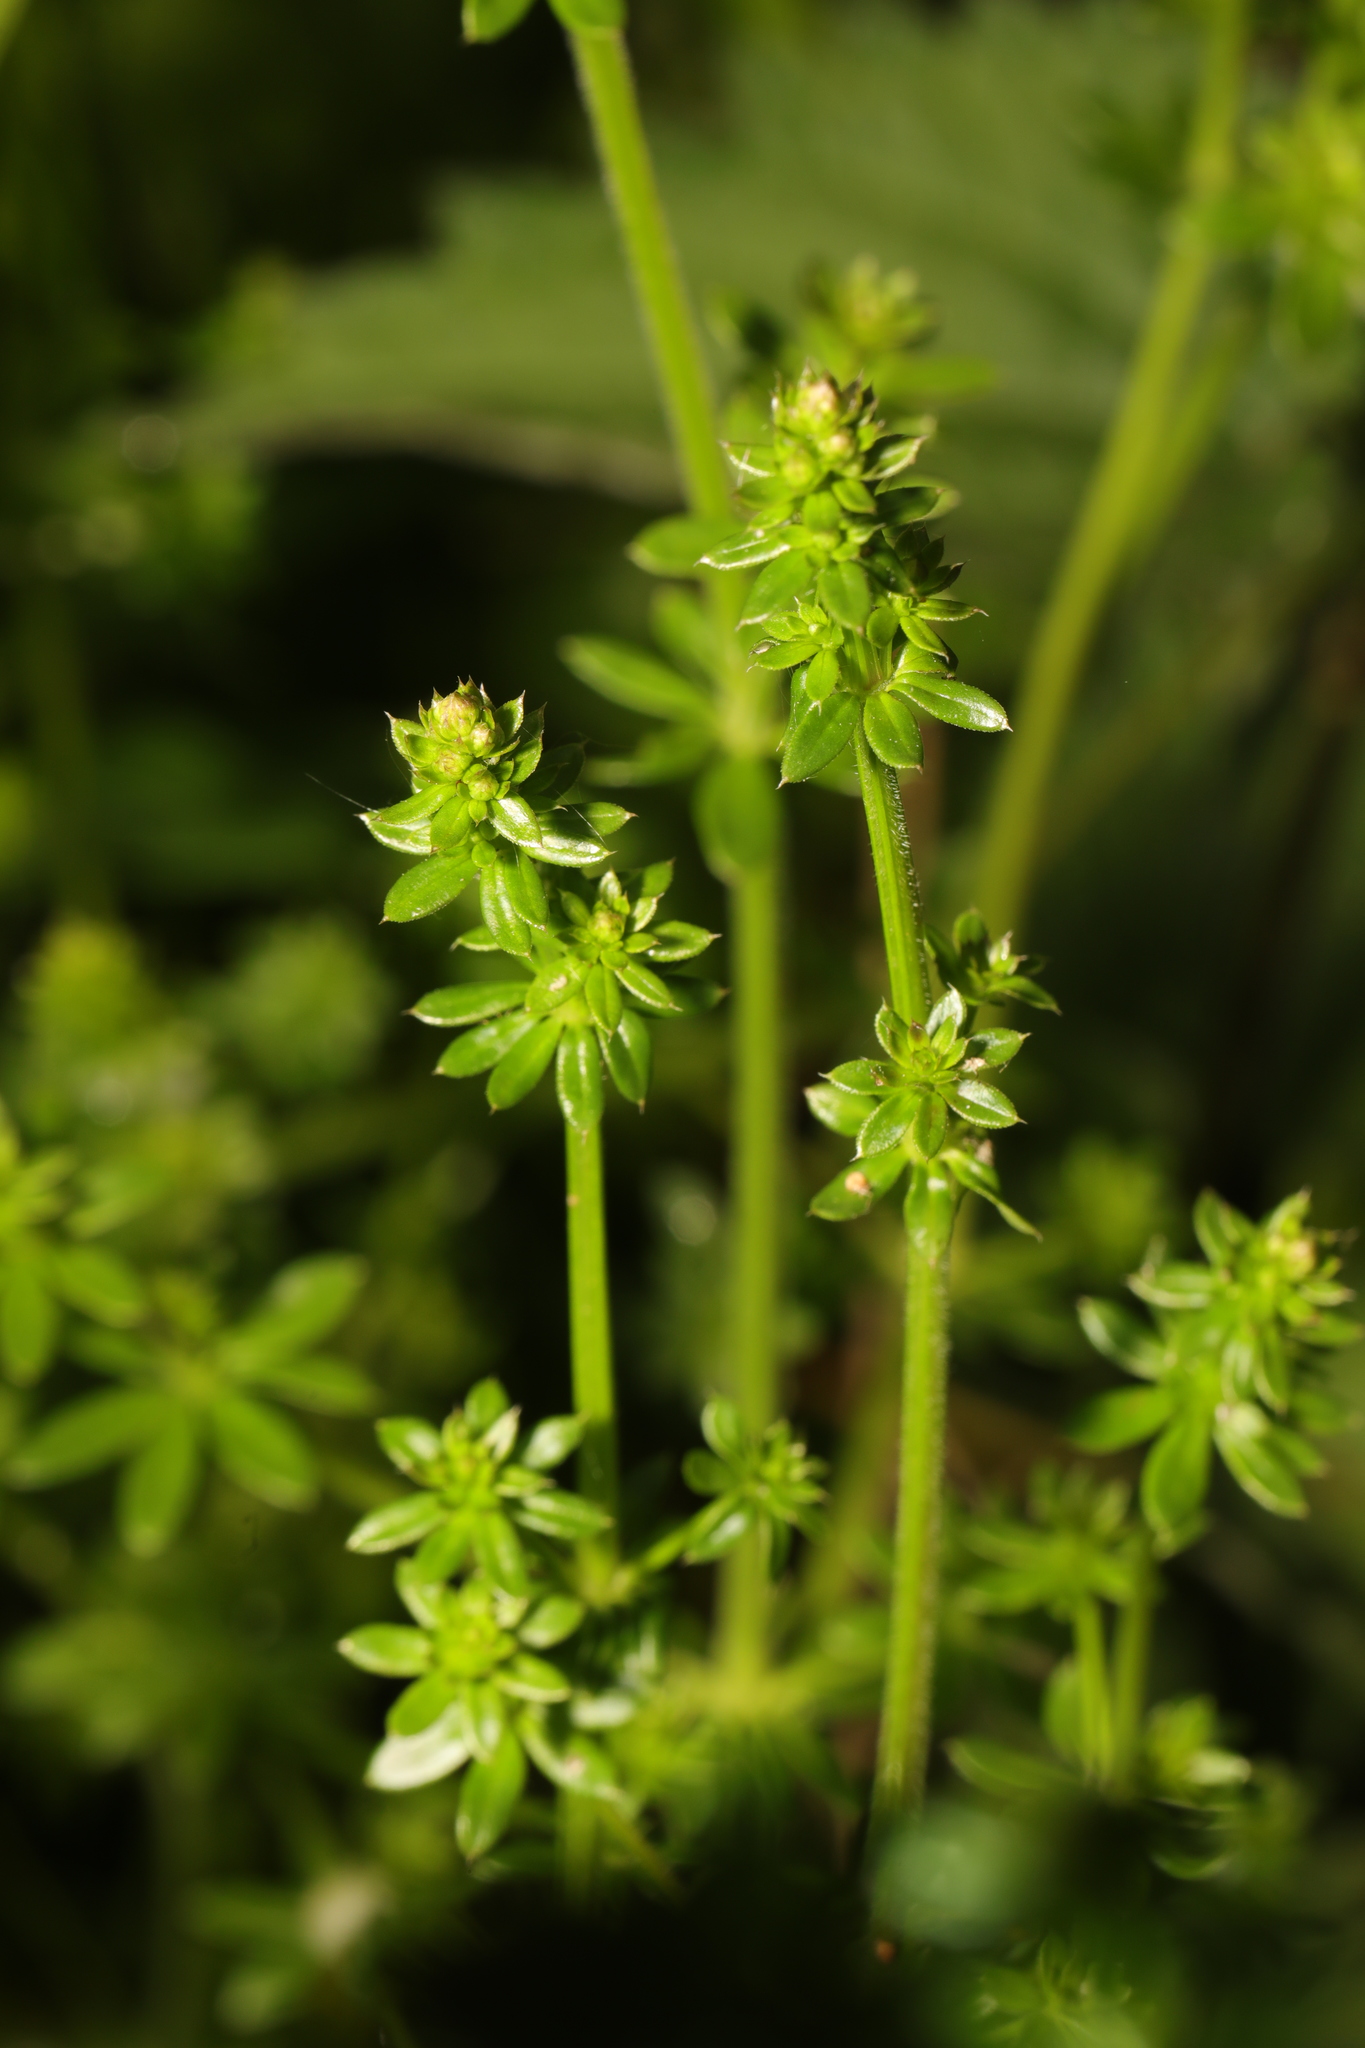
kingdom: Plantae
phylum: Tracheophyta
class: Magnoliopsida
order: Gentianales
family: Rubiaceae
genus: Galium
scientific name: Galium mollugo
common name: Hedge bedstraw
